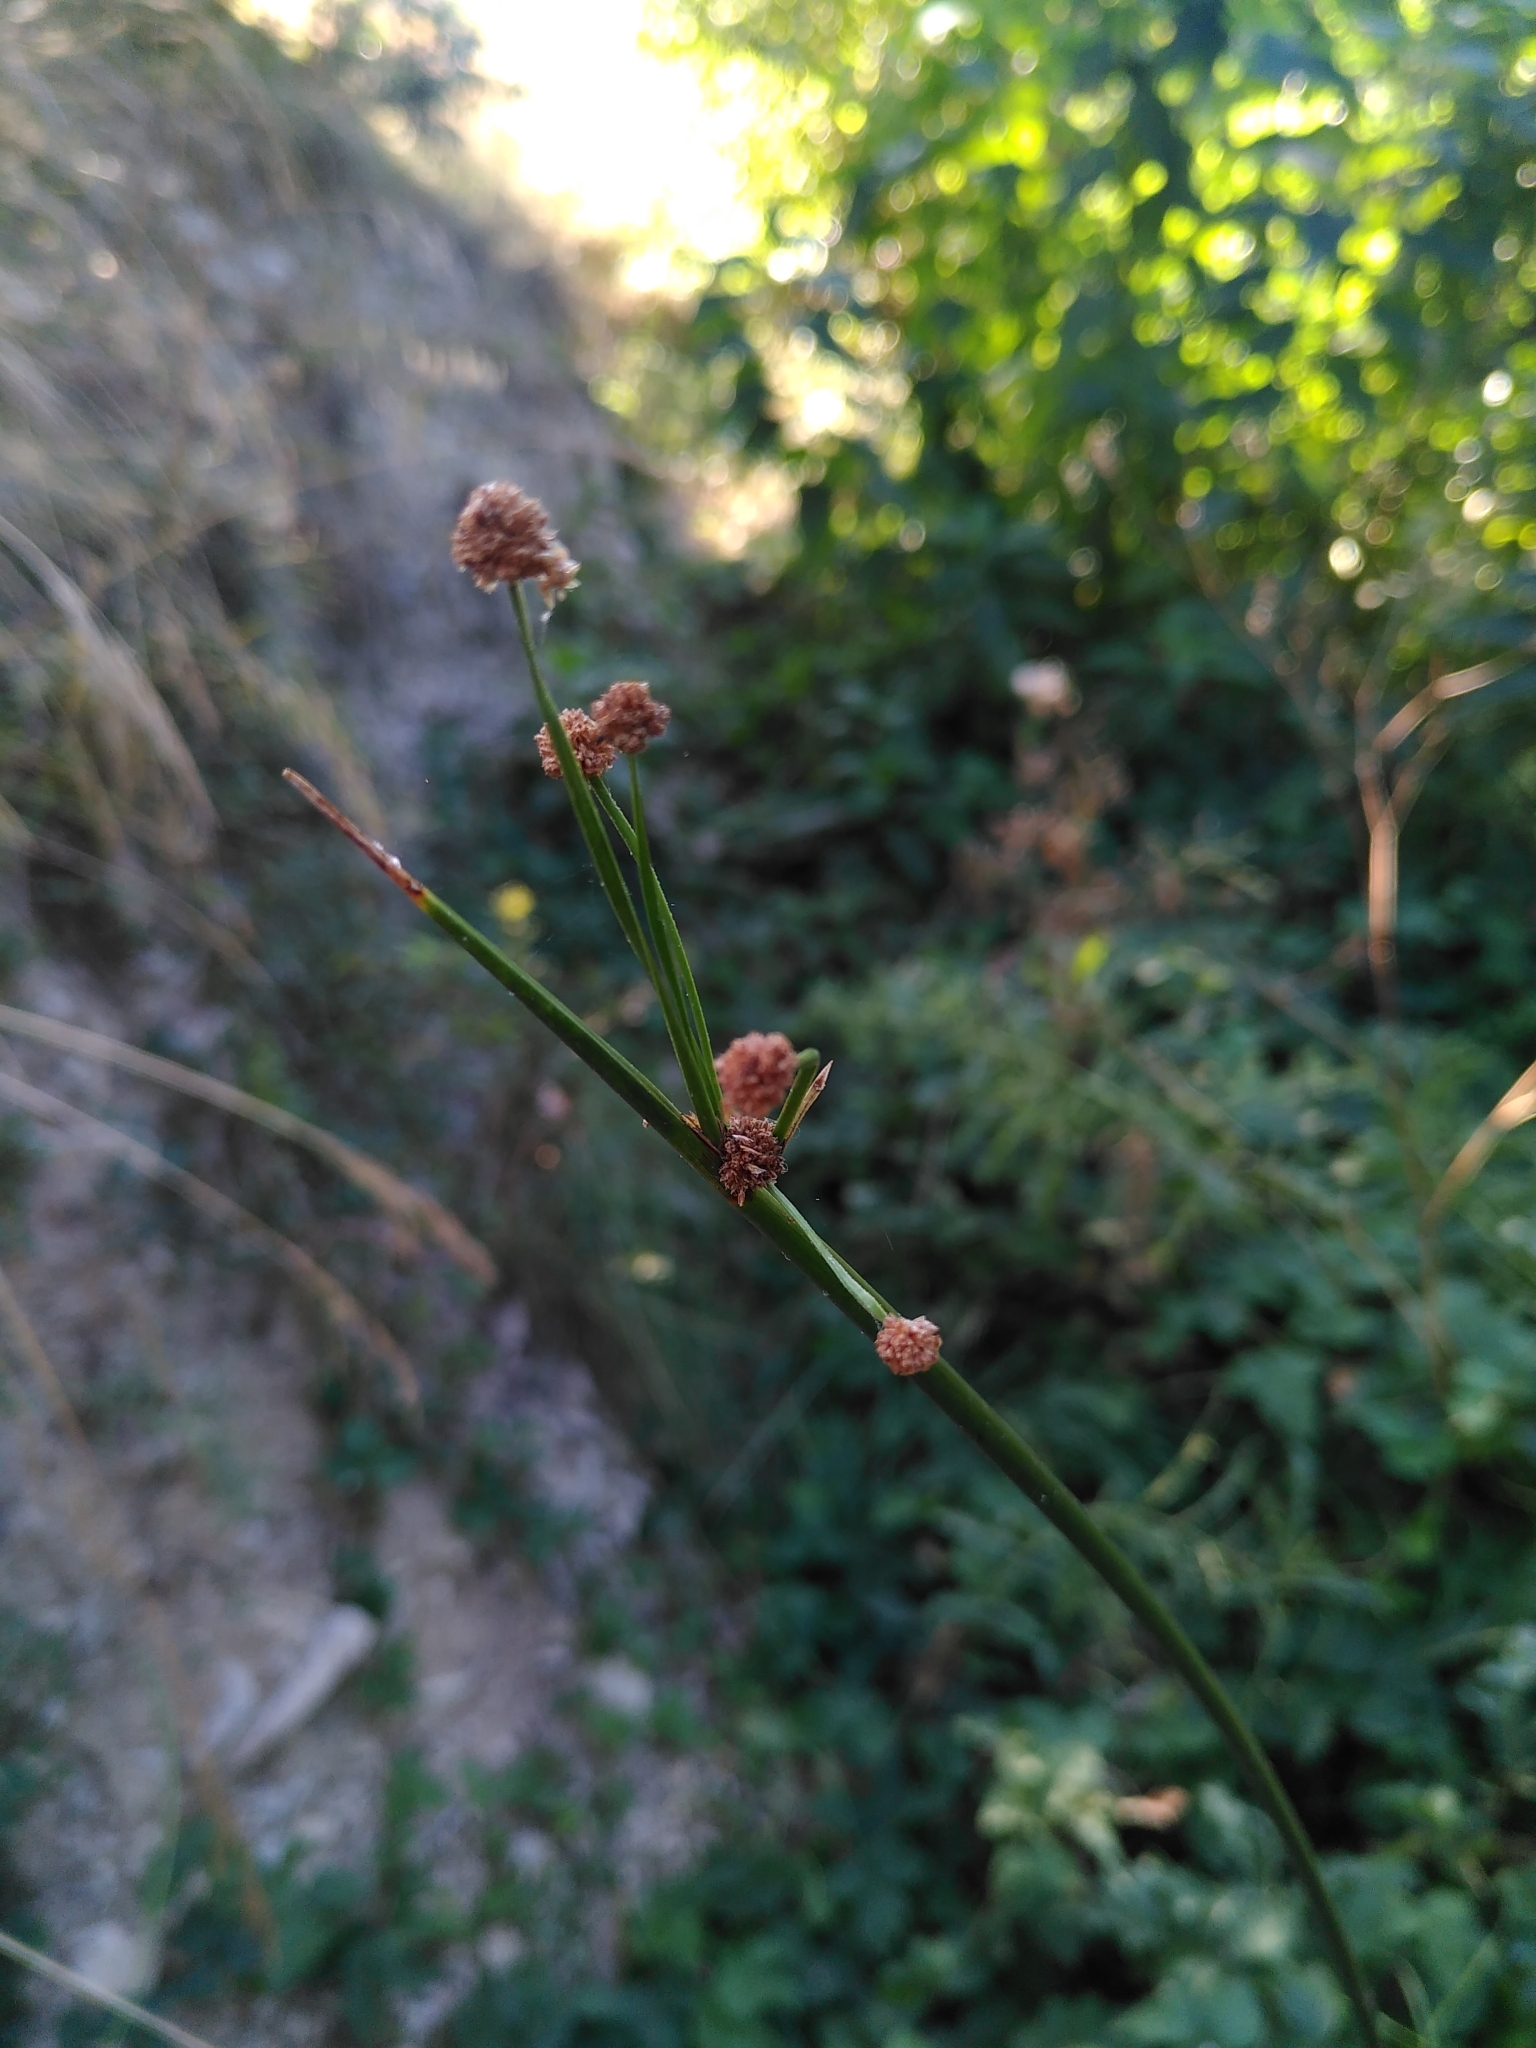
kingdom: Plantae
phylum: Tracheophyta
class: Liliopsida
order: Poales
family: Cyperaceae
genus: Scirpoides
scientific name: Scirpoides holoschoenus
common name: Round-headed club-rush
